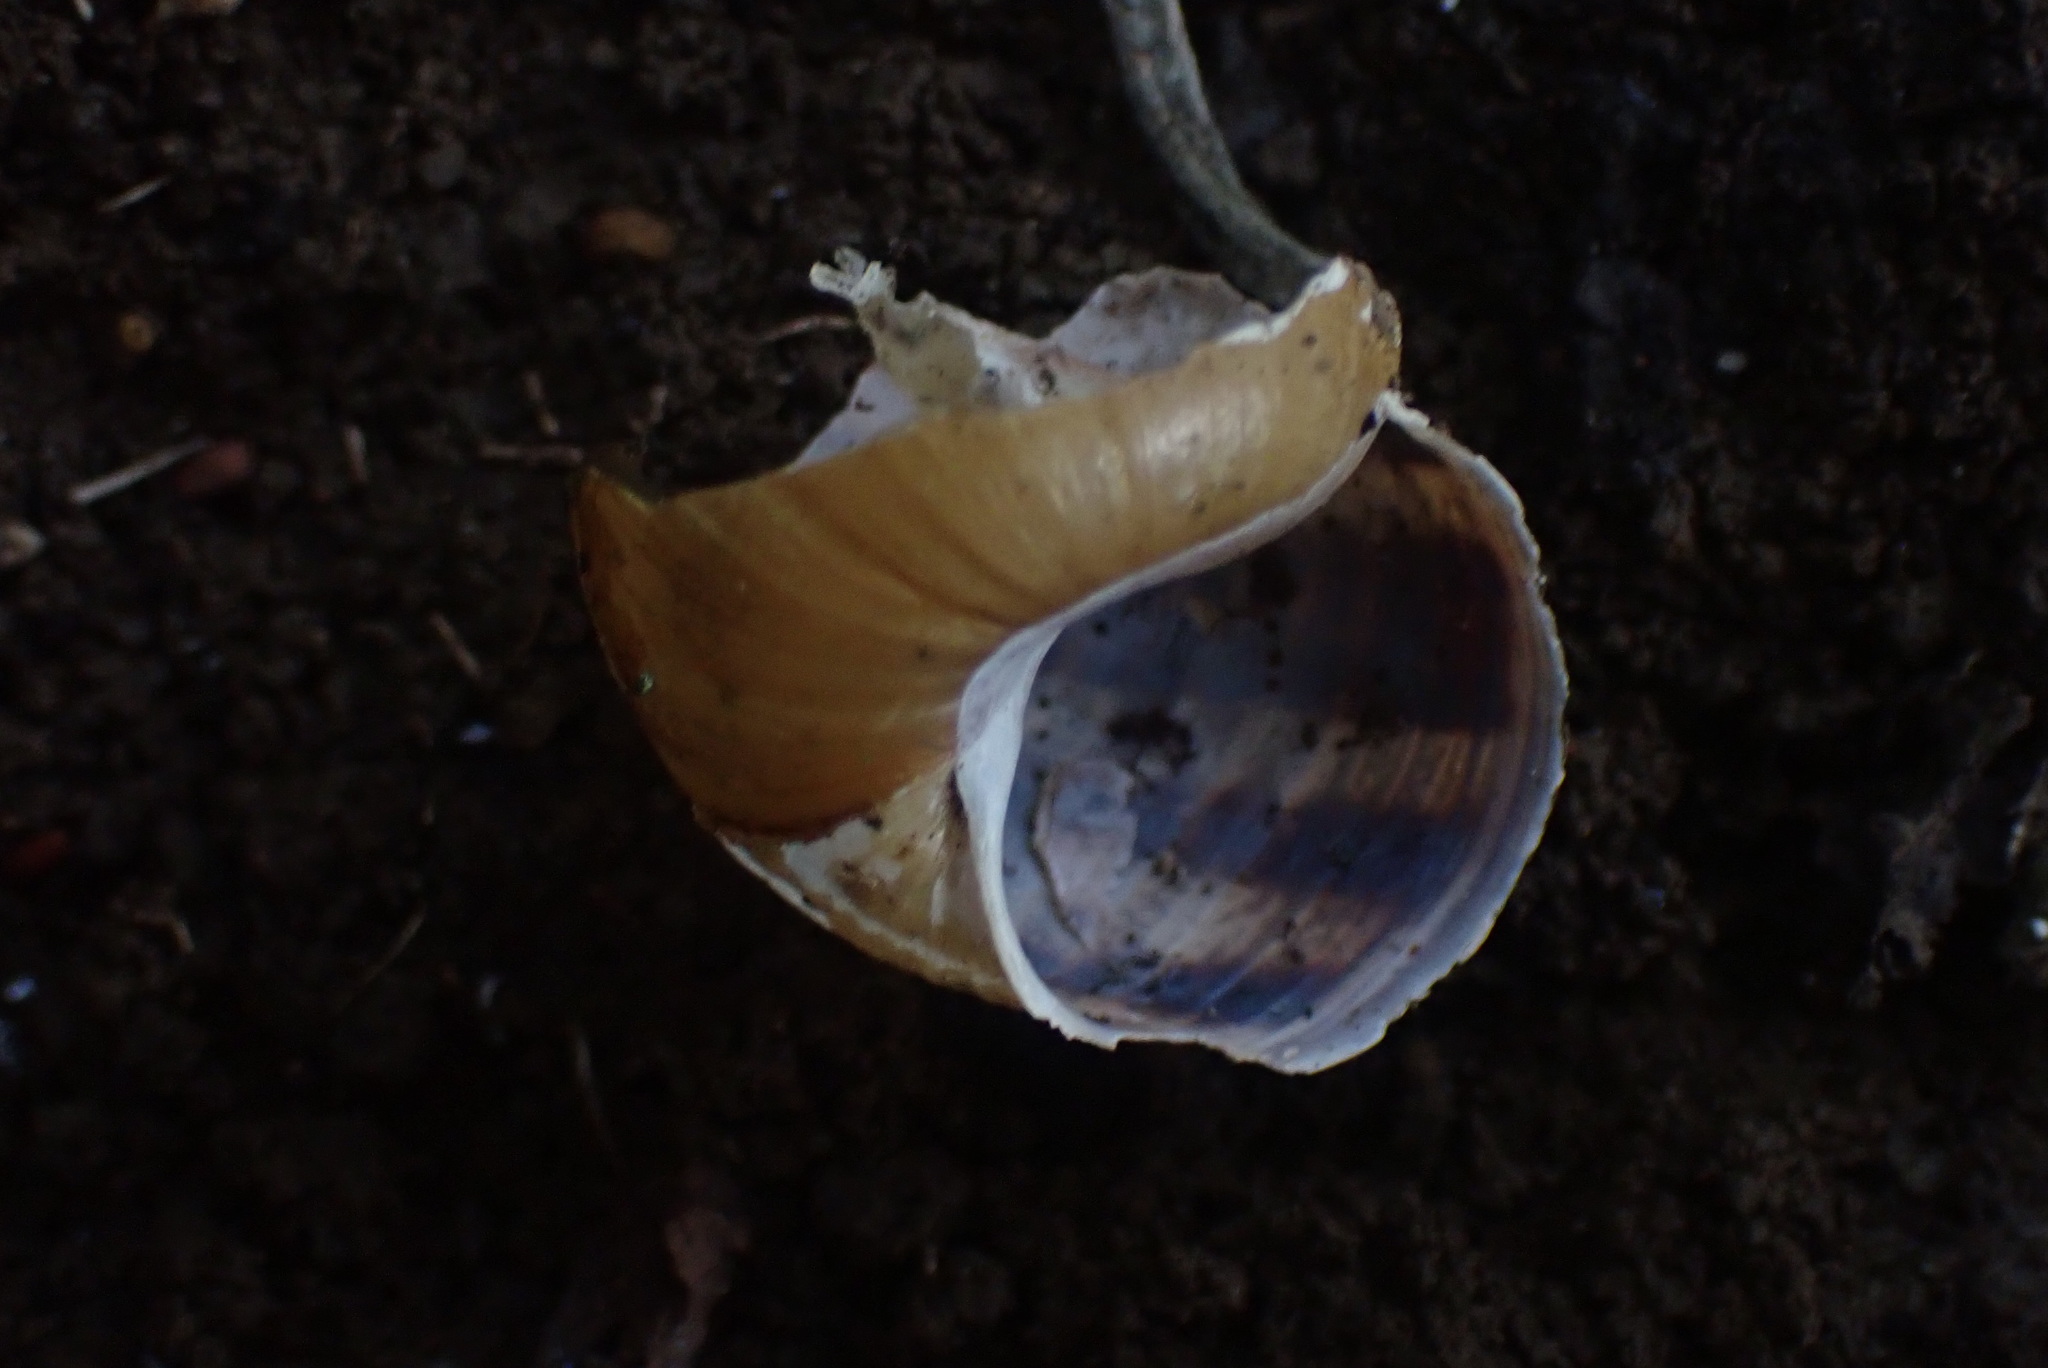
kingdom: Animalia
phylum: Mollusca
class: Gastropoda
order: Stylommatophora
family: Helicidae
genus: Cornu
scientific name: Cornu aspersum
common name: Brown garden snail
